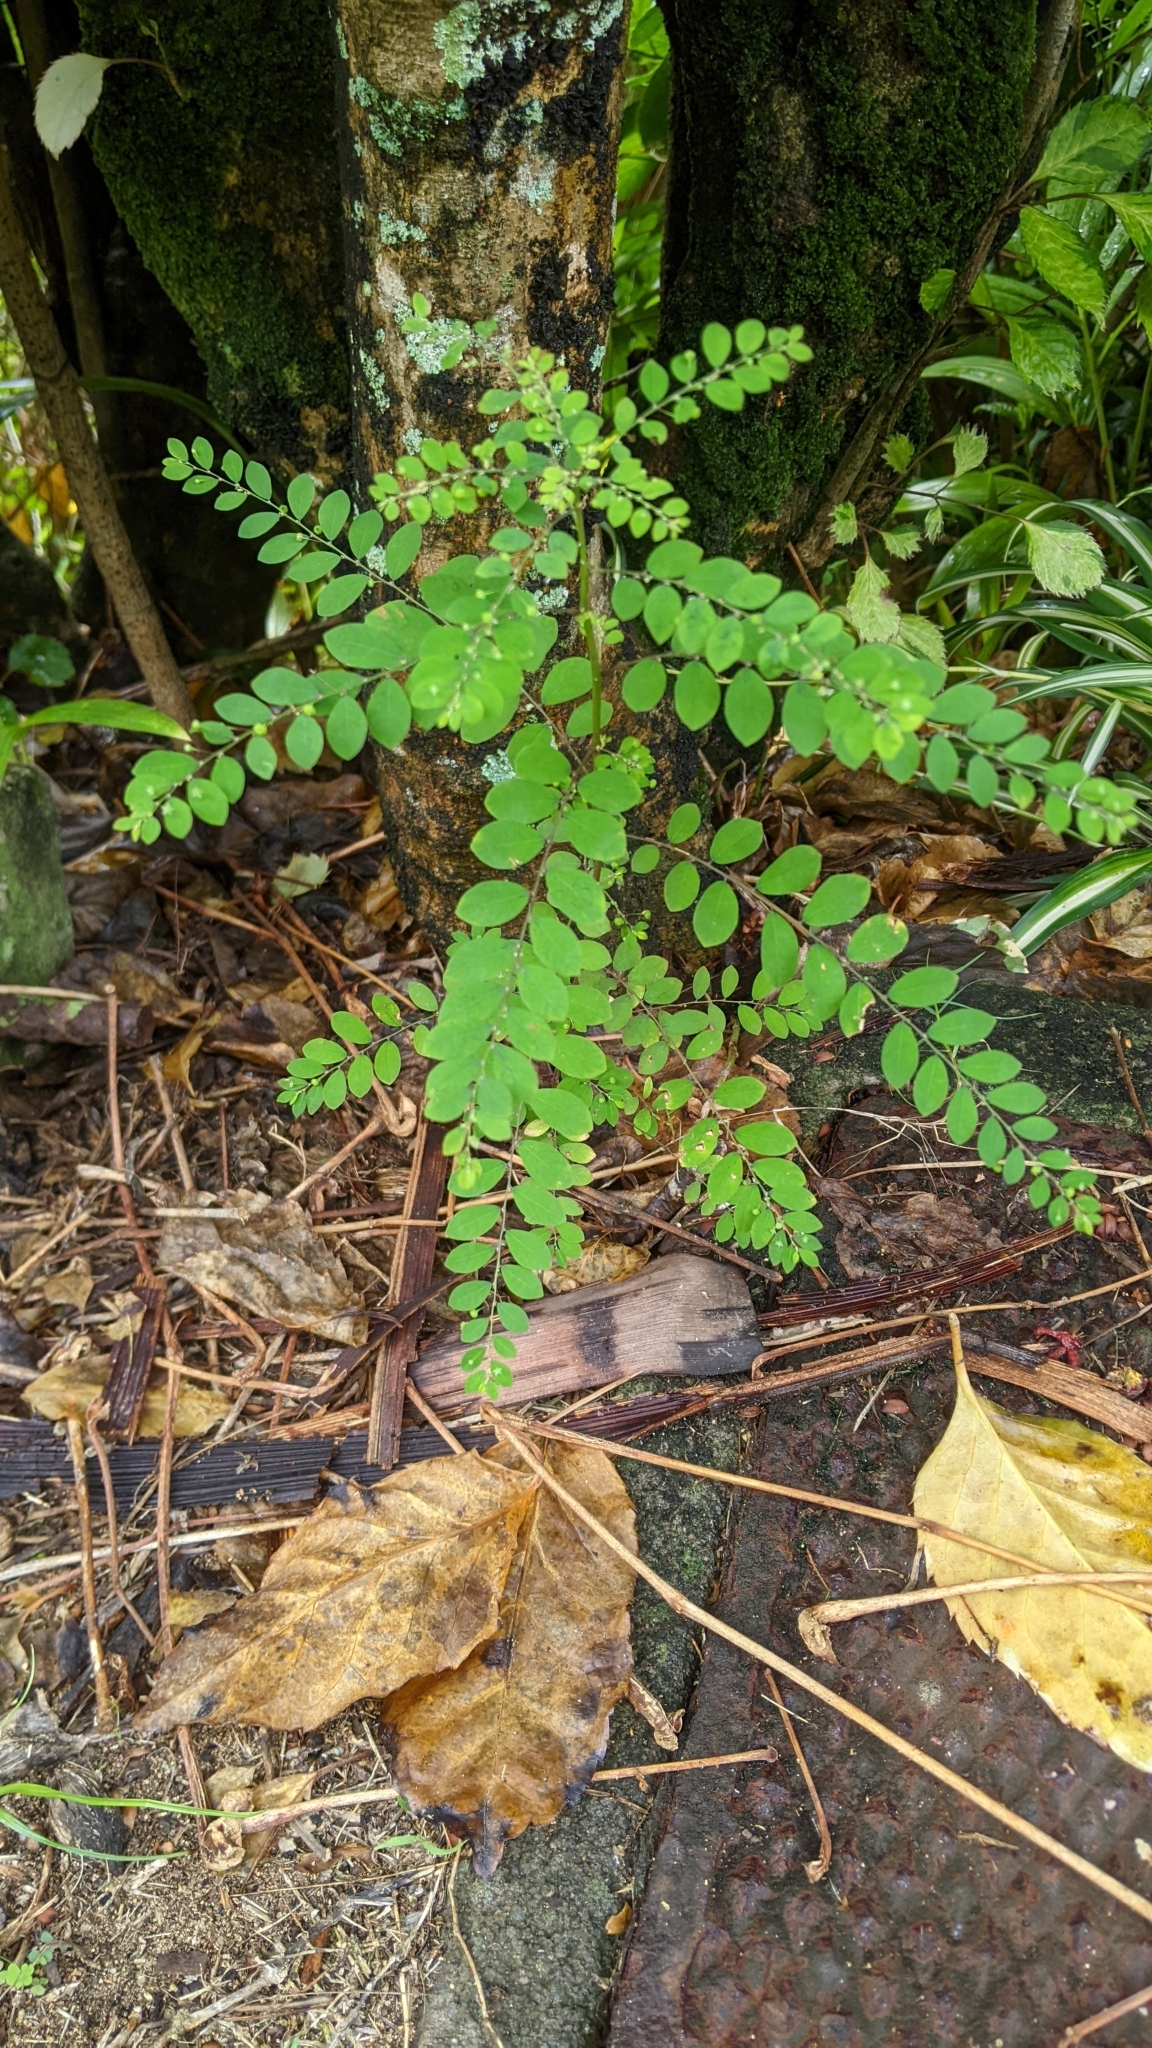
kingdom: Plantae
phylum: Tracheophyta
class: Magnoliopsida
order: Malpighiales
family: Phyllanthaceae
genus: Phyllanthus
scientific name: Phyllanthus tenellus
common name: Mascarene island leaf-flower
